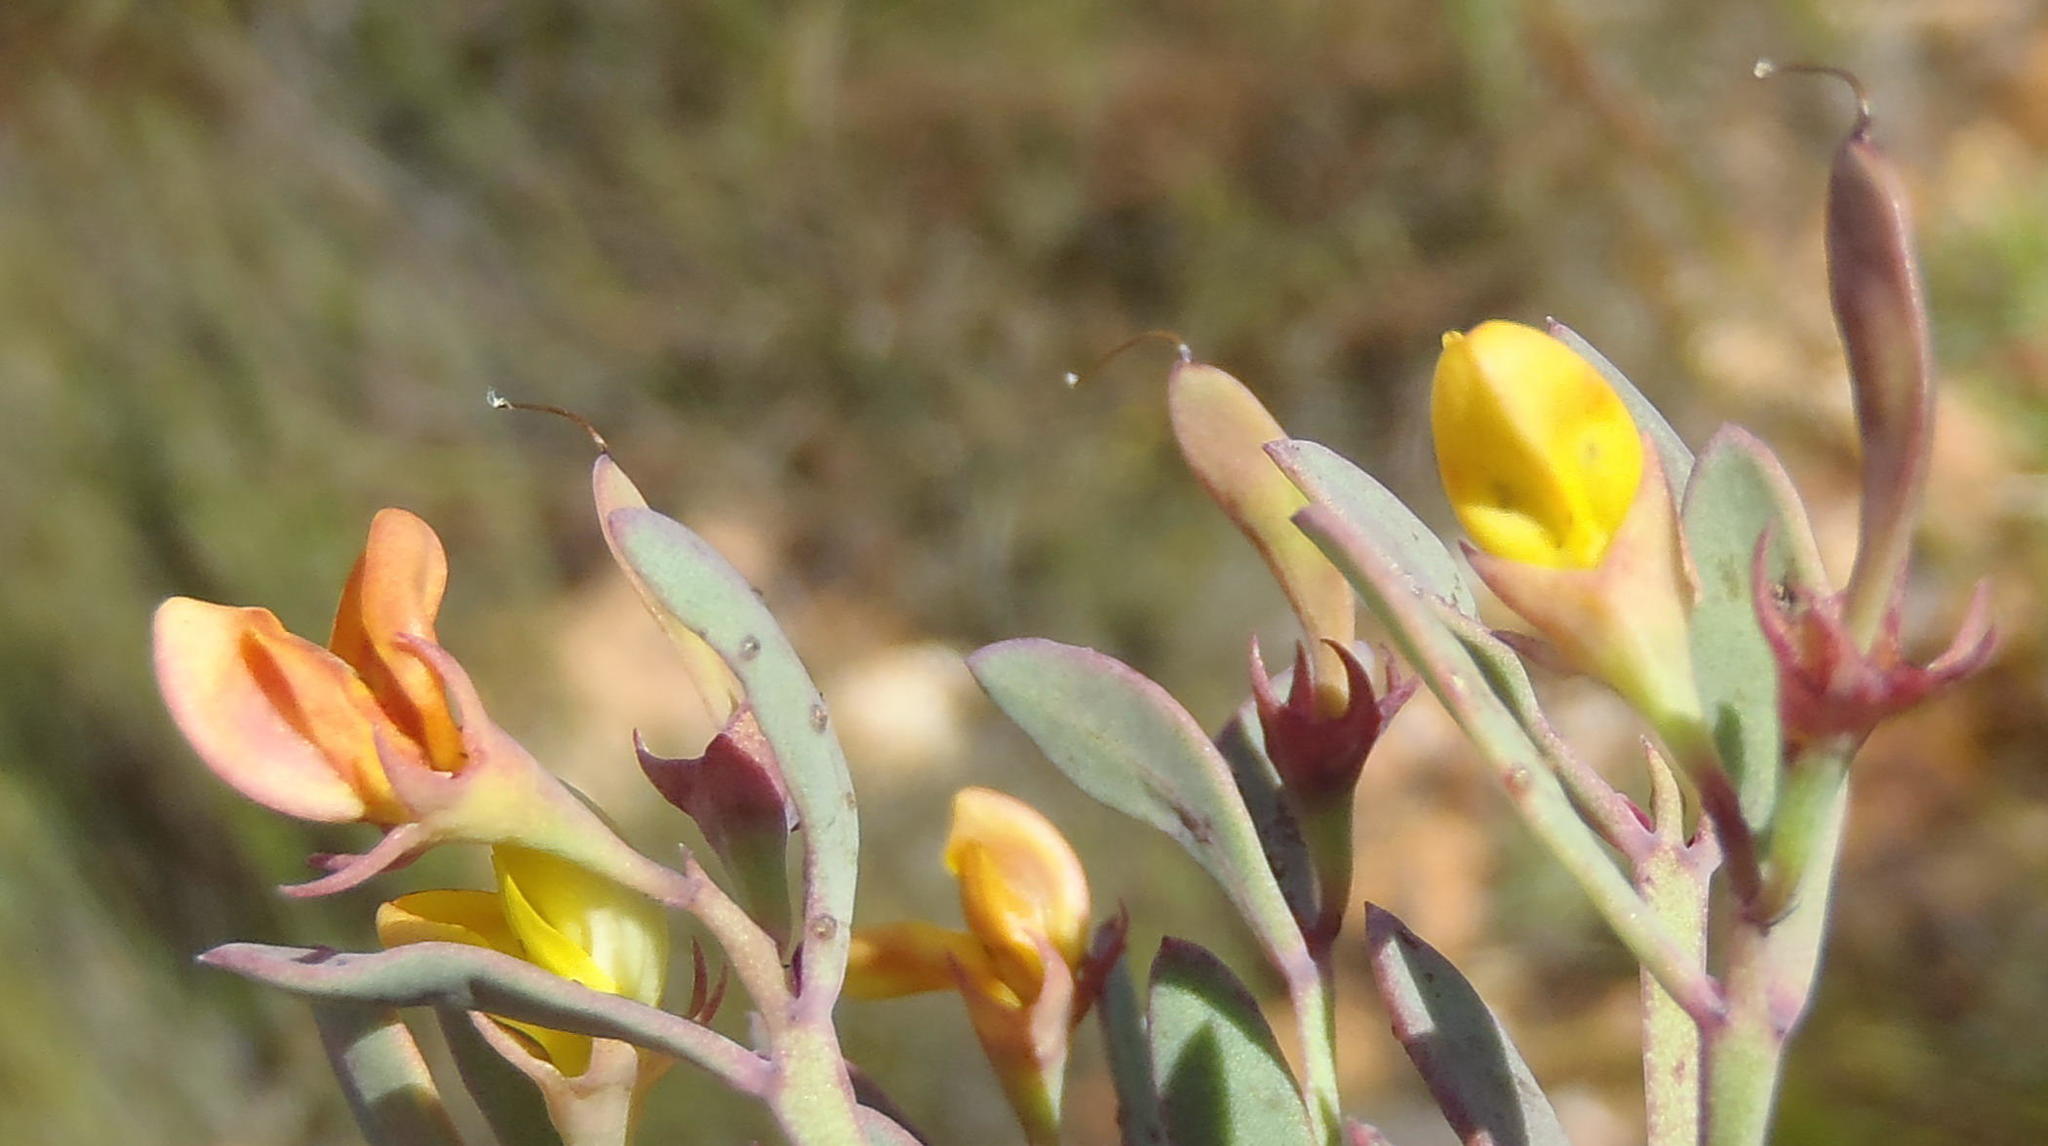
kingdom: Plantae
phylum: Tracheophyta
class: Magnoliopsida
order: Fabales
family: Fabaceae
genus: Rafnia
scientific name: Rafnia capensis
